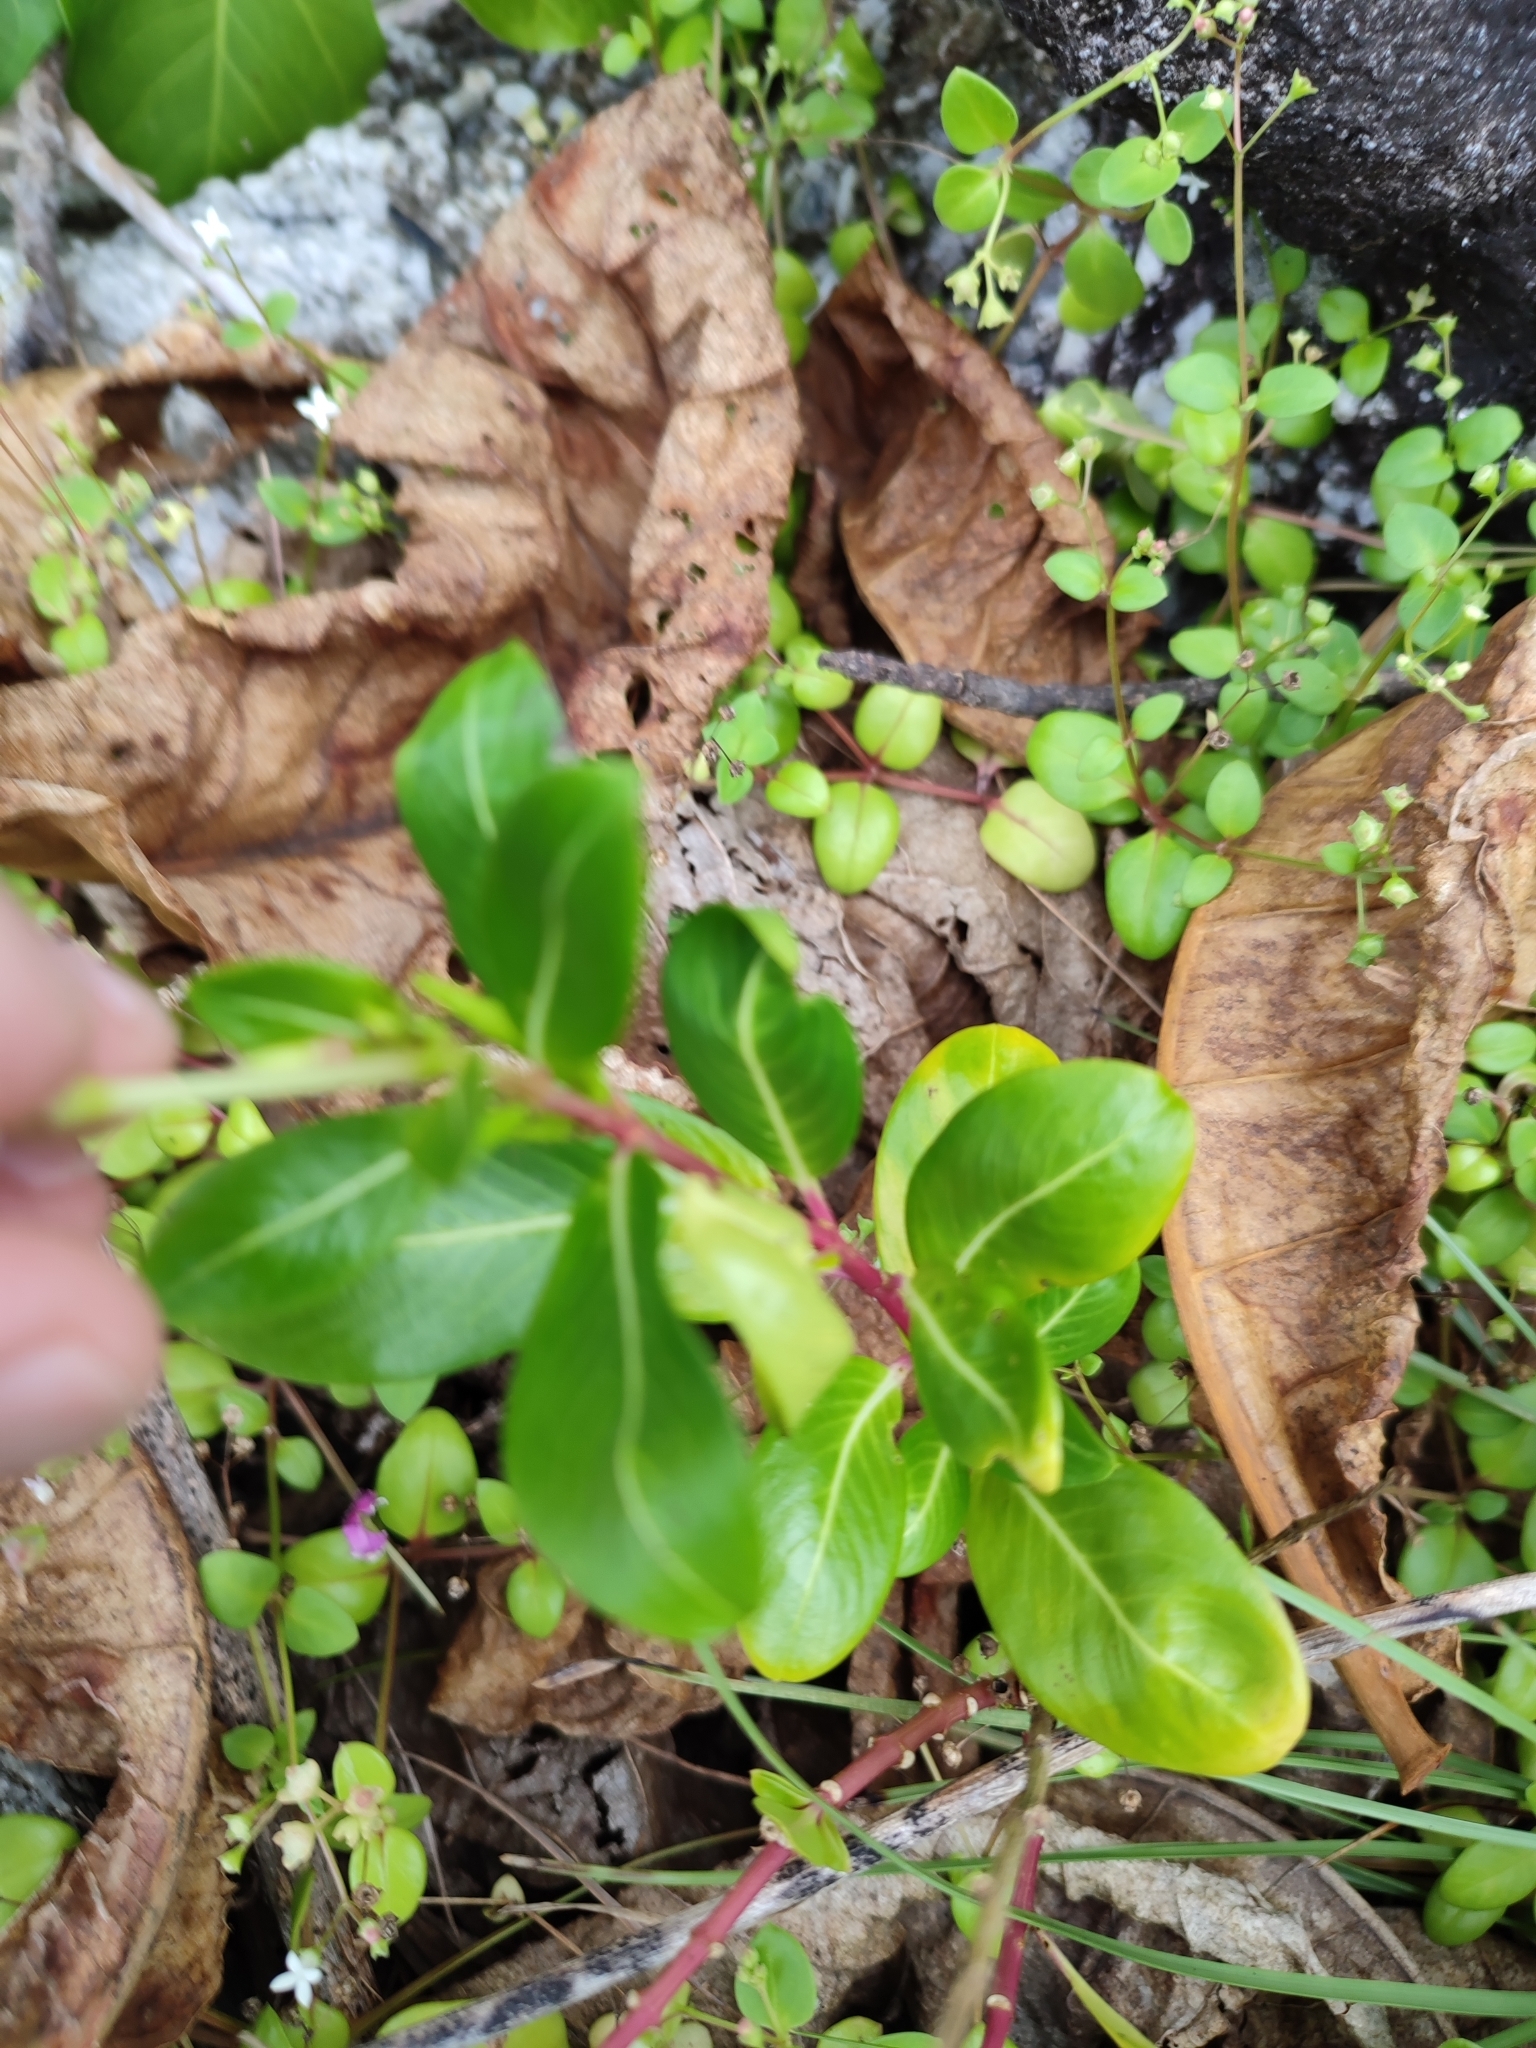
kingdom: Plantae
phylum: Tracheophyta
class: Magnoliopsida
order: Gentianales
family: Apocynaceae
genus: Catharanthus
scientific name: Catharanthus roseus
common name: Madagascar periwinkle
